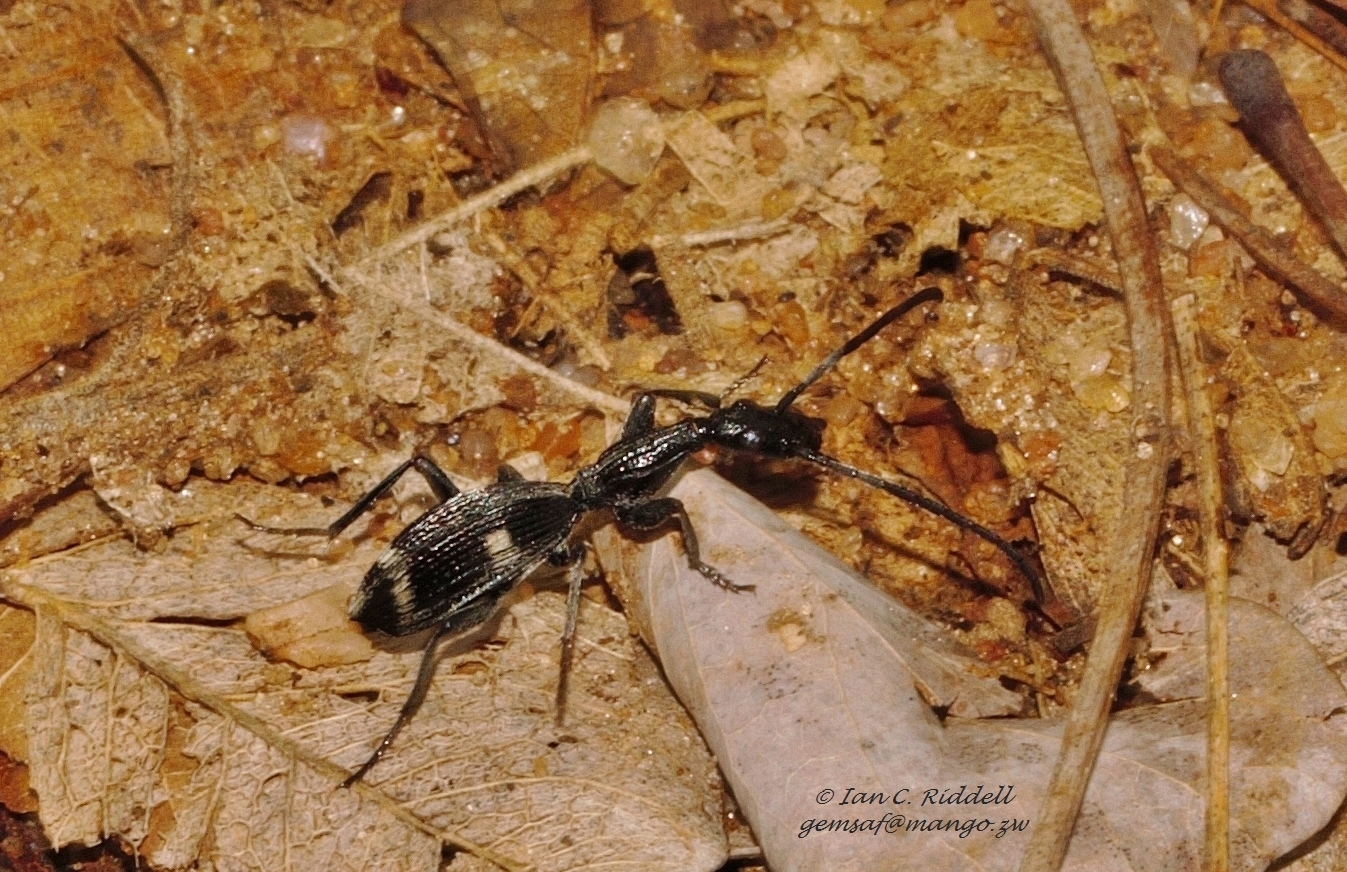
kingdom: Animalia
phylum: Arthropoda
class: Insecta
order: Coleoptera
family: Carabidae
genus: Atractonotus
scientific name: Atractonotus mulsantii
